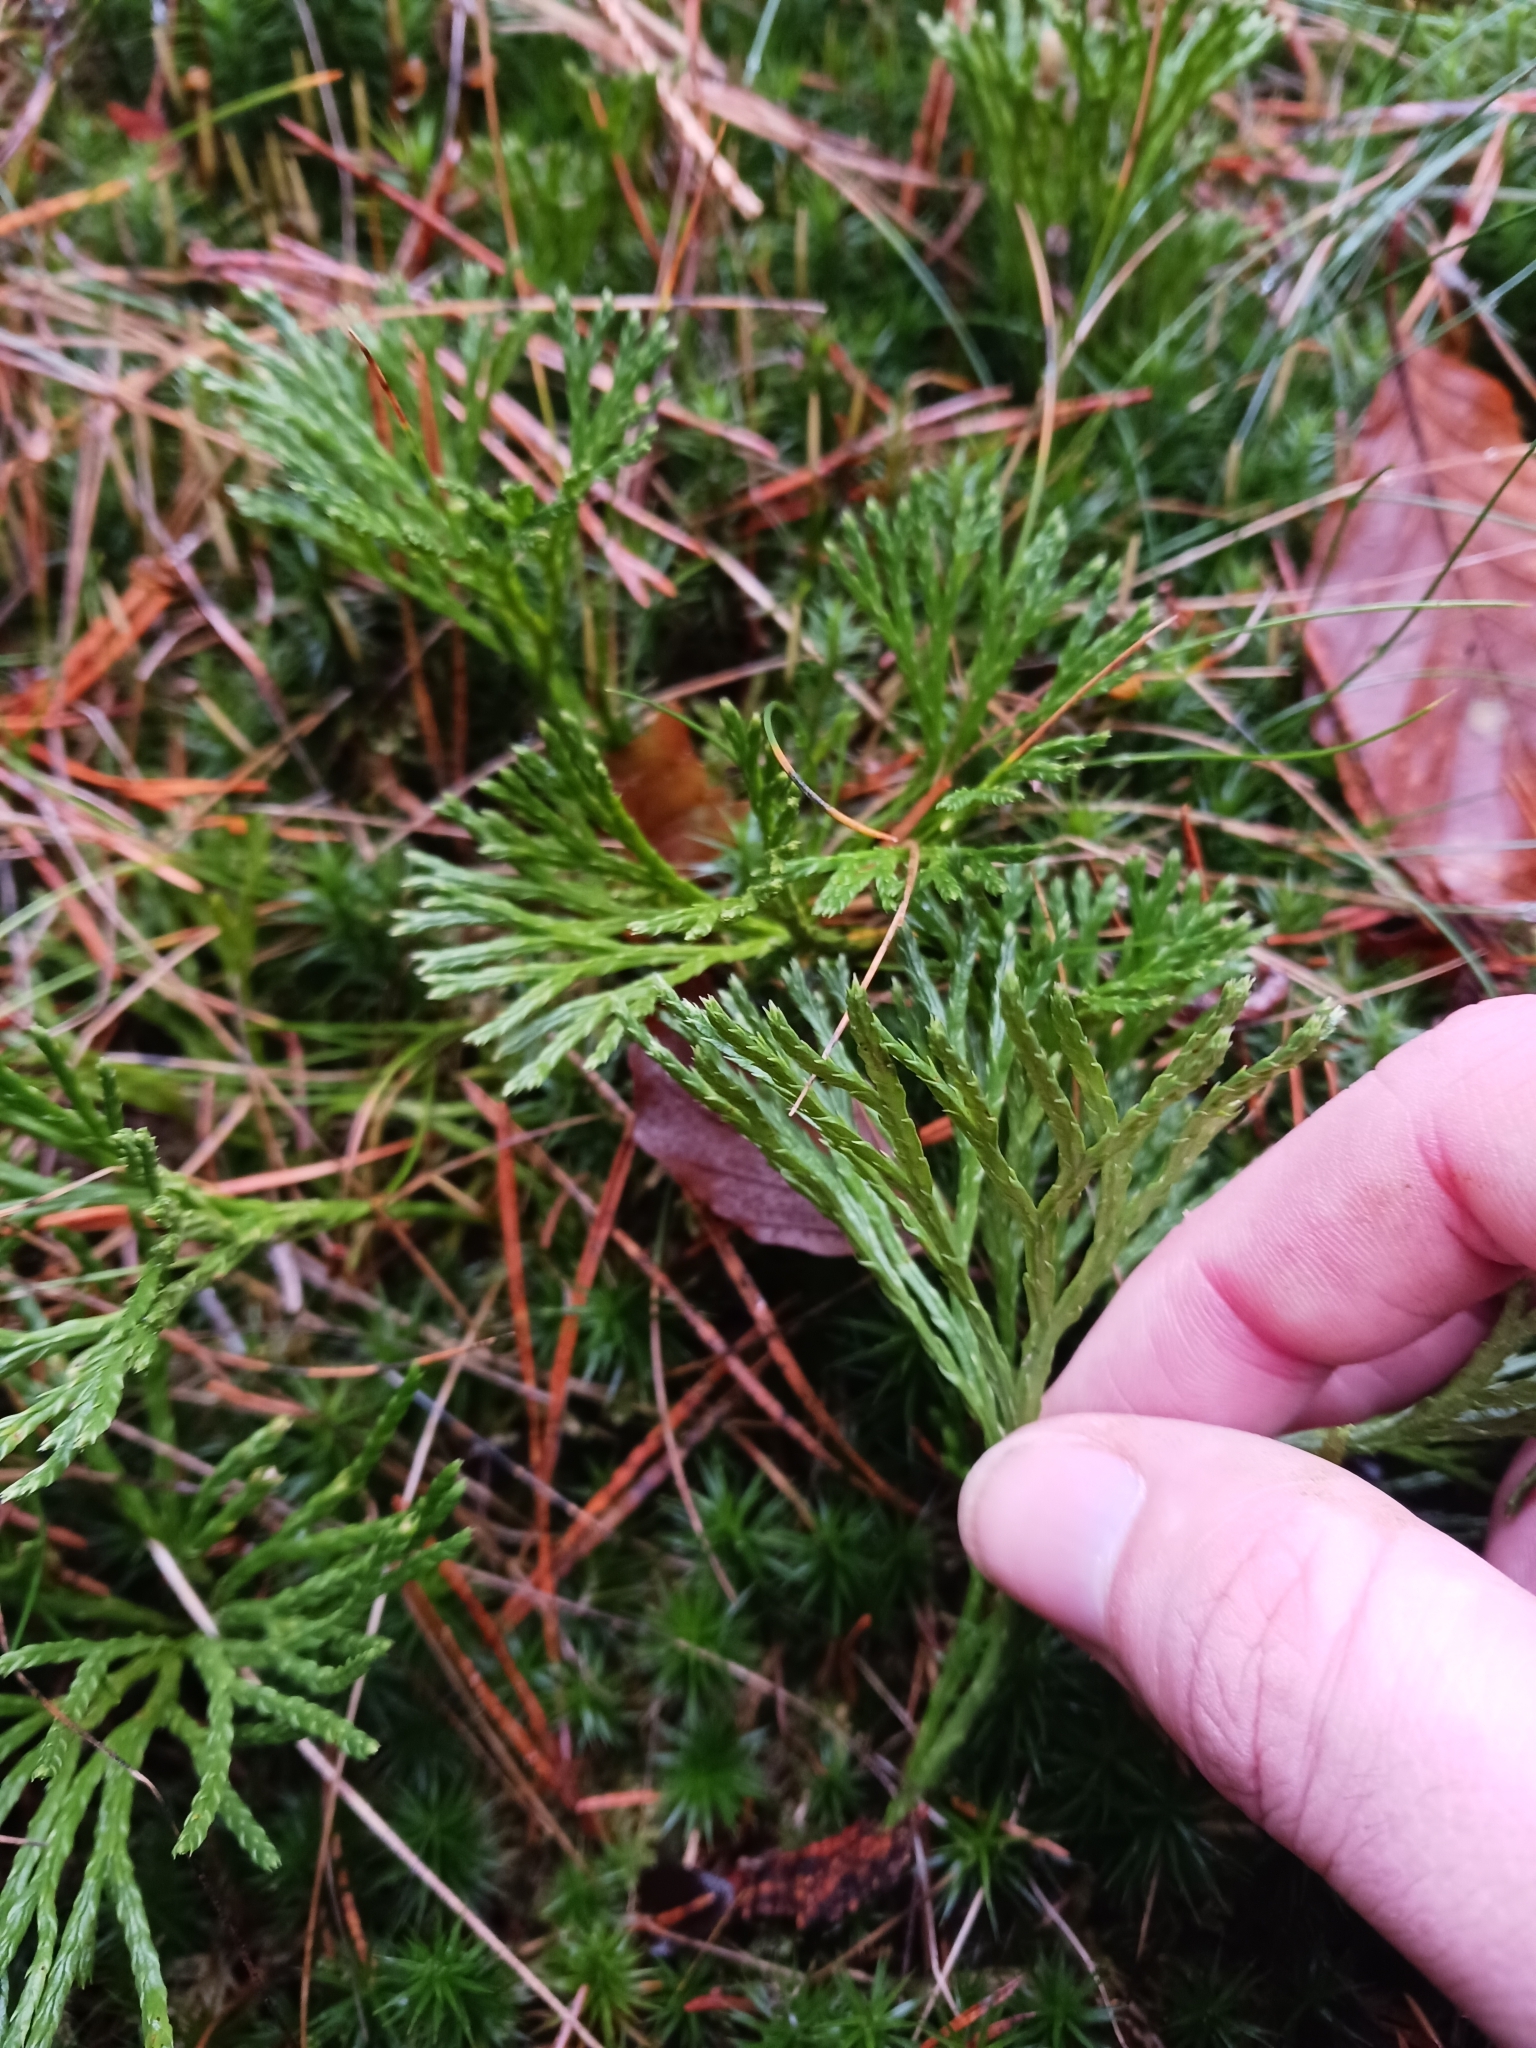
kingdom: Plantae
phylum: Tracheophyta
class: Lycopodiopsida
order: Lycopodiales
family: Lycopodiaceae
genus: Diphasiastrum
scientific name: Diphasiastrum
